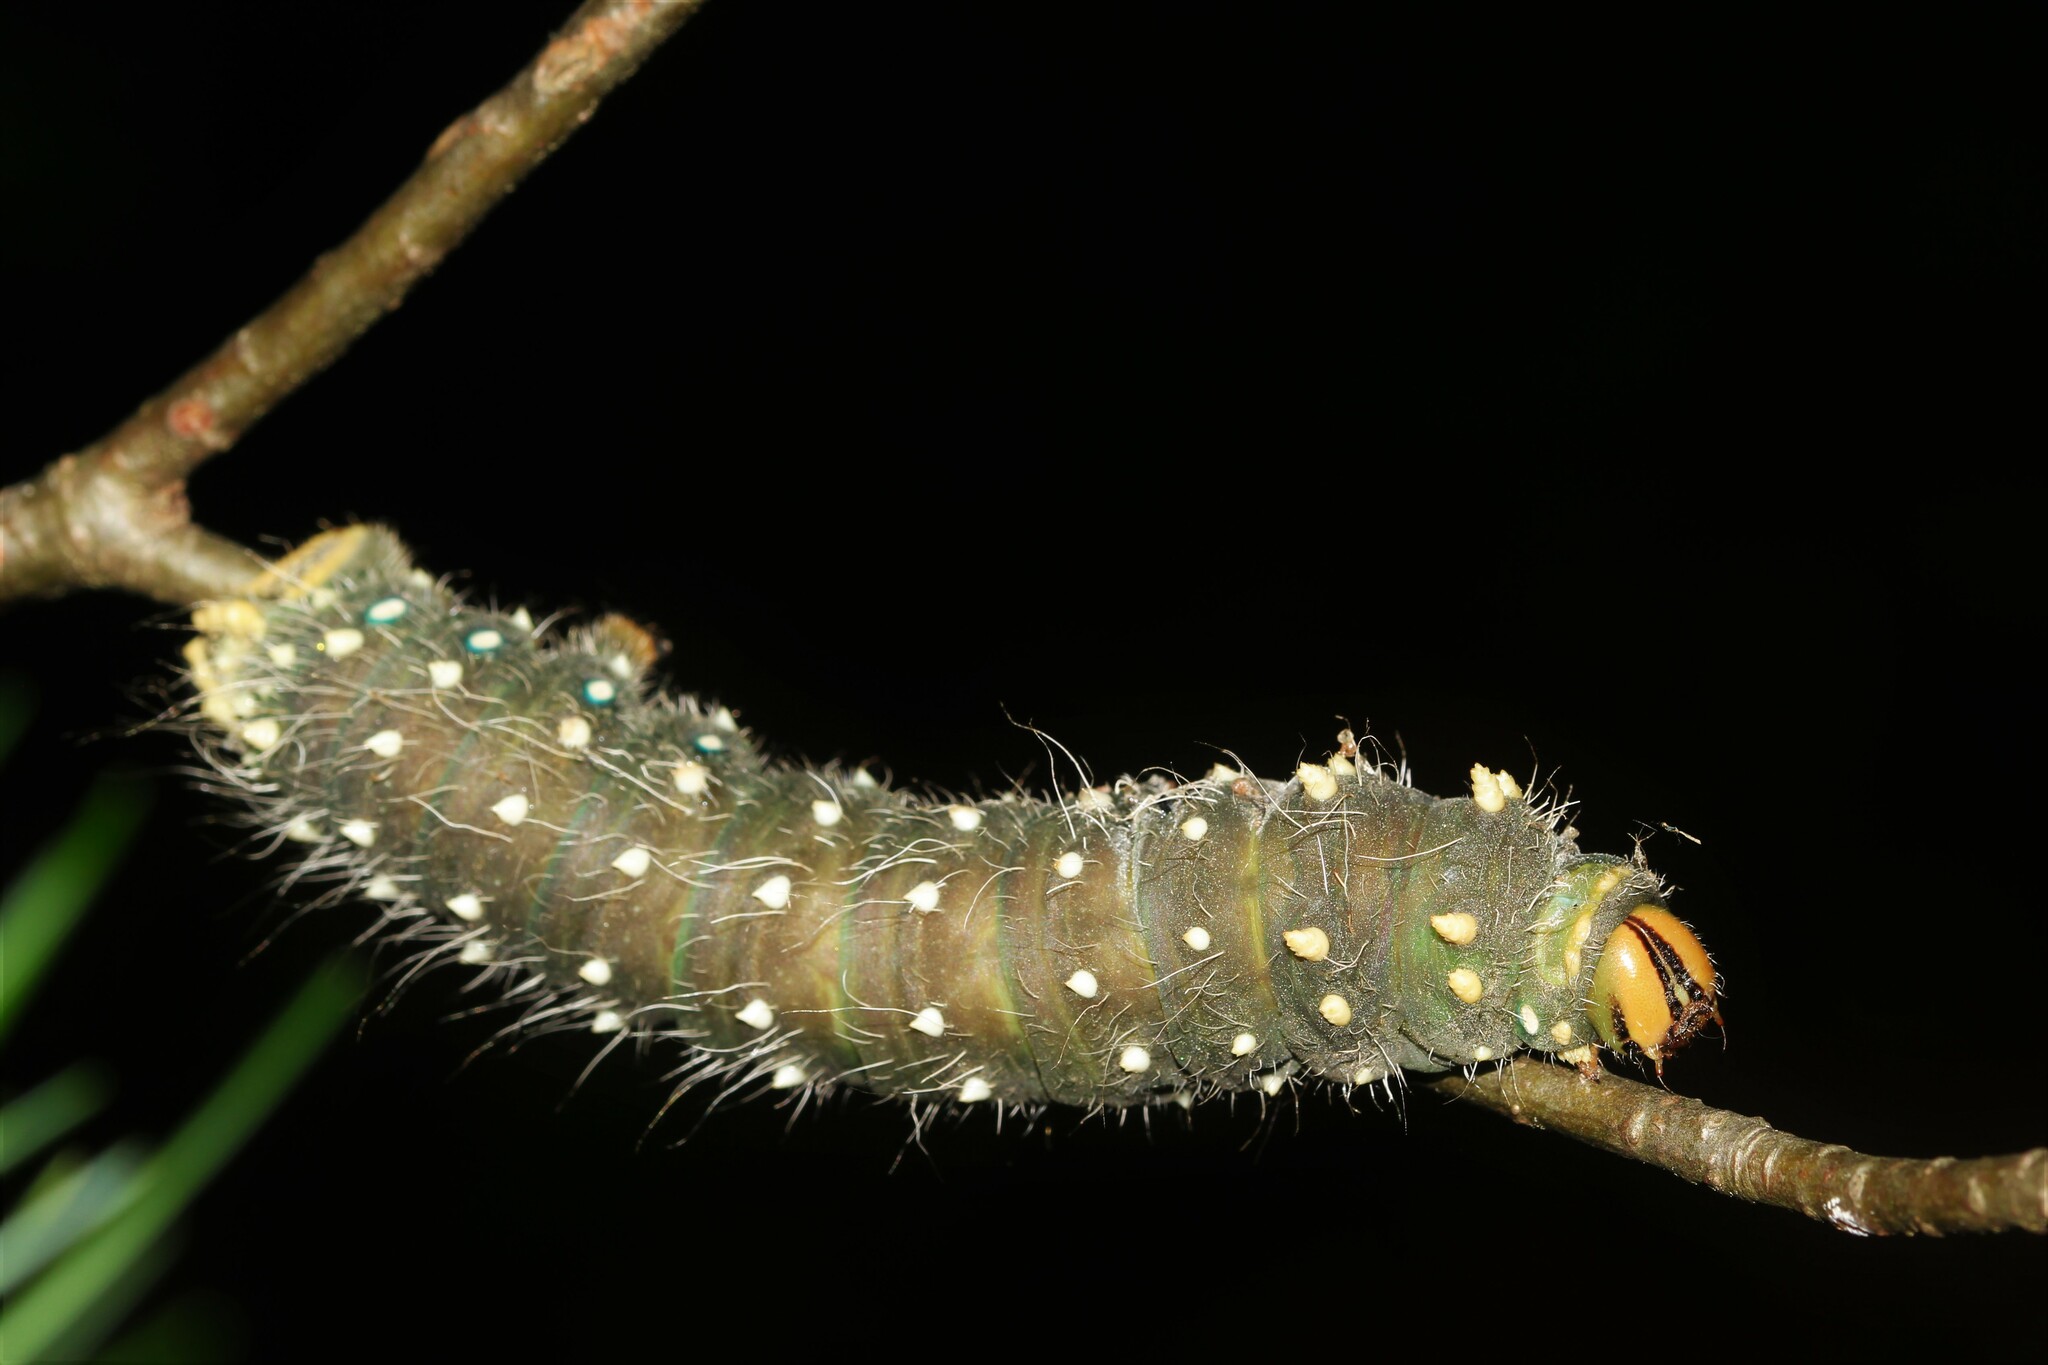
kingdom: Animalia
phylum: Arthropoda
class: Insecta
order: Lepidoptera
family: Saturniidae
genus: Eacles
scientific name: Eacles
